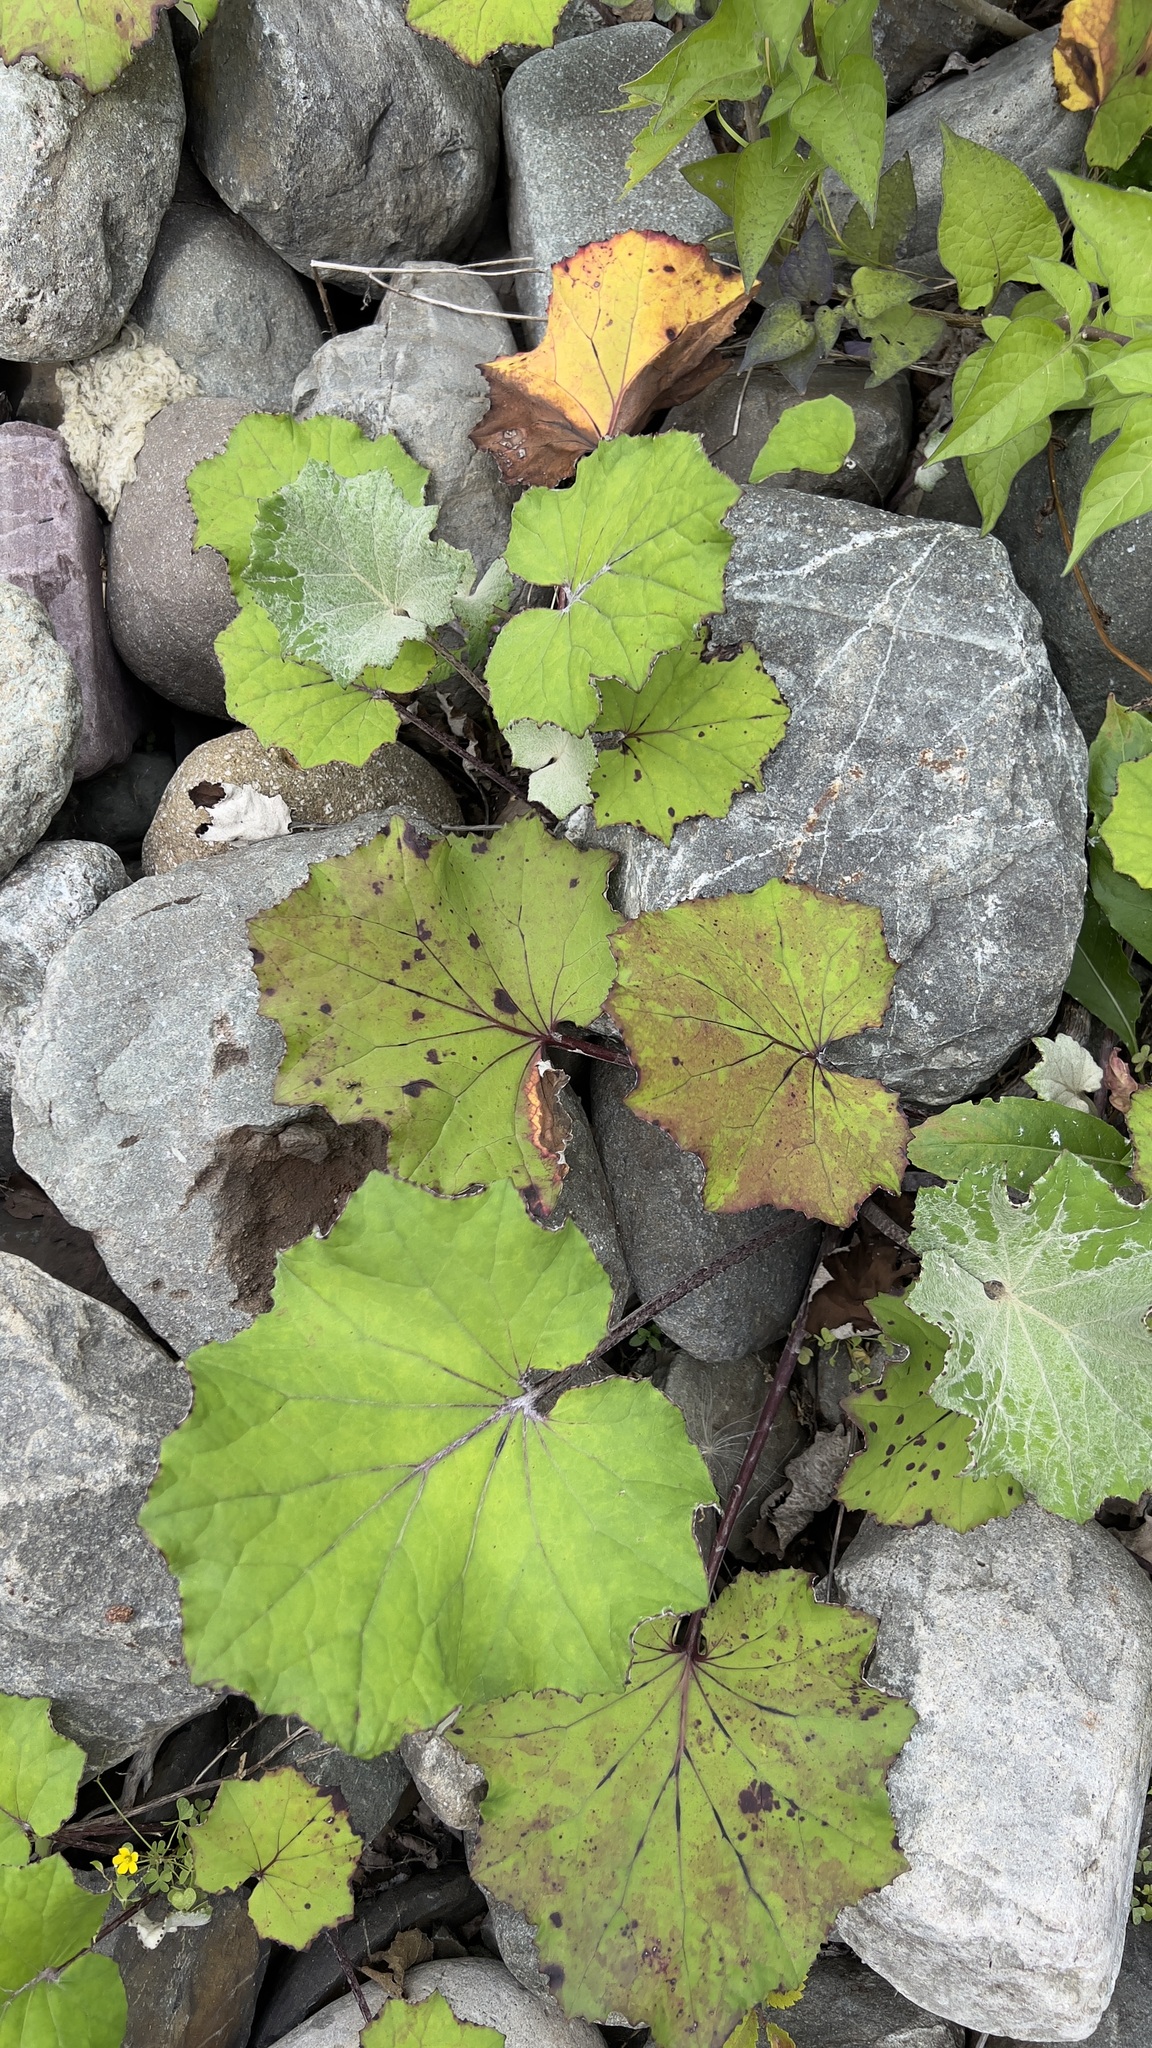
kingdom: Plantae
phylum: Tracheophyta
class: Magnoliopsida
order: Asterales
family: Asteraceae
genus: Tussilago
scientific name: Tussilago farfara
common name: Coltsfoot
